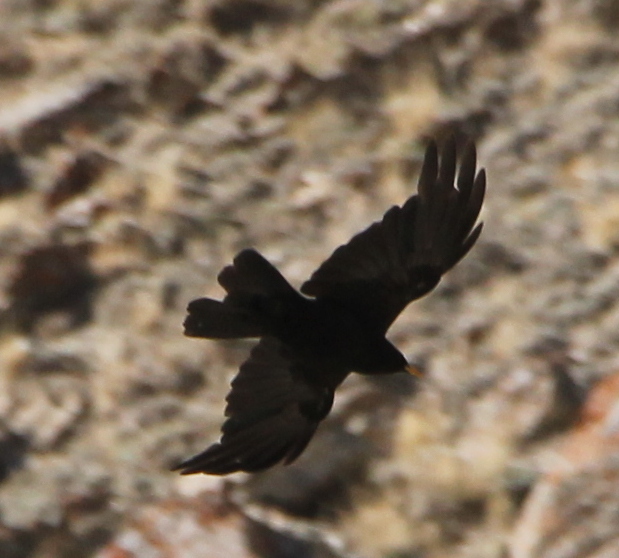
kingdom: Animalia
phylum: Chordata
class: Aves
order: Passeriformes
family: Corvidae
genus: Pyrrhocorax
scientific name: Pyrrhocorax graculus
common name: Alpine chough
